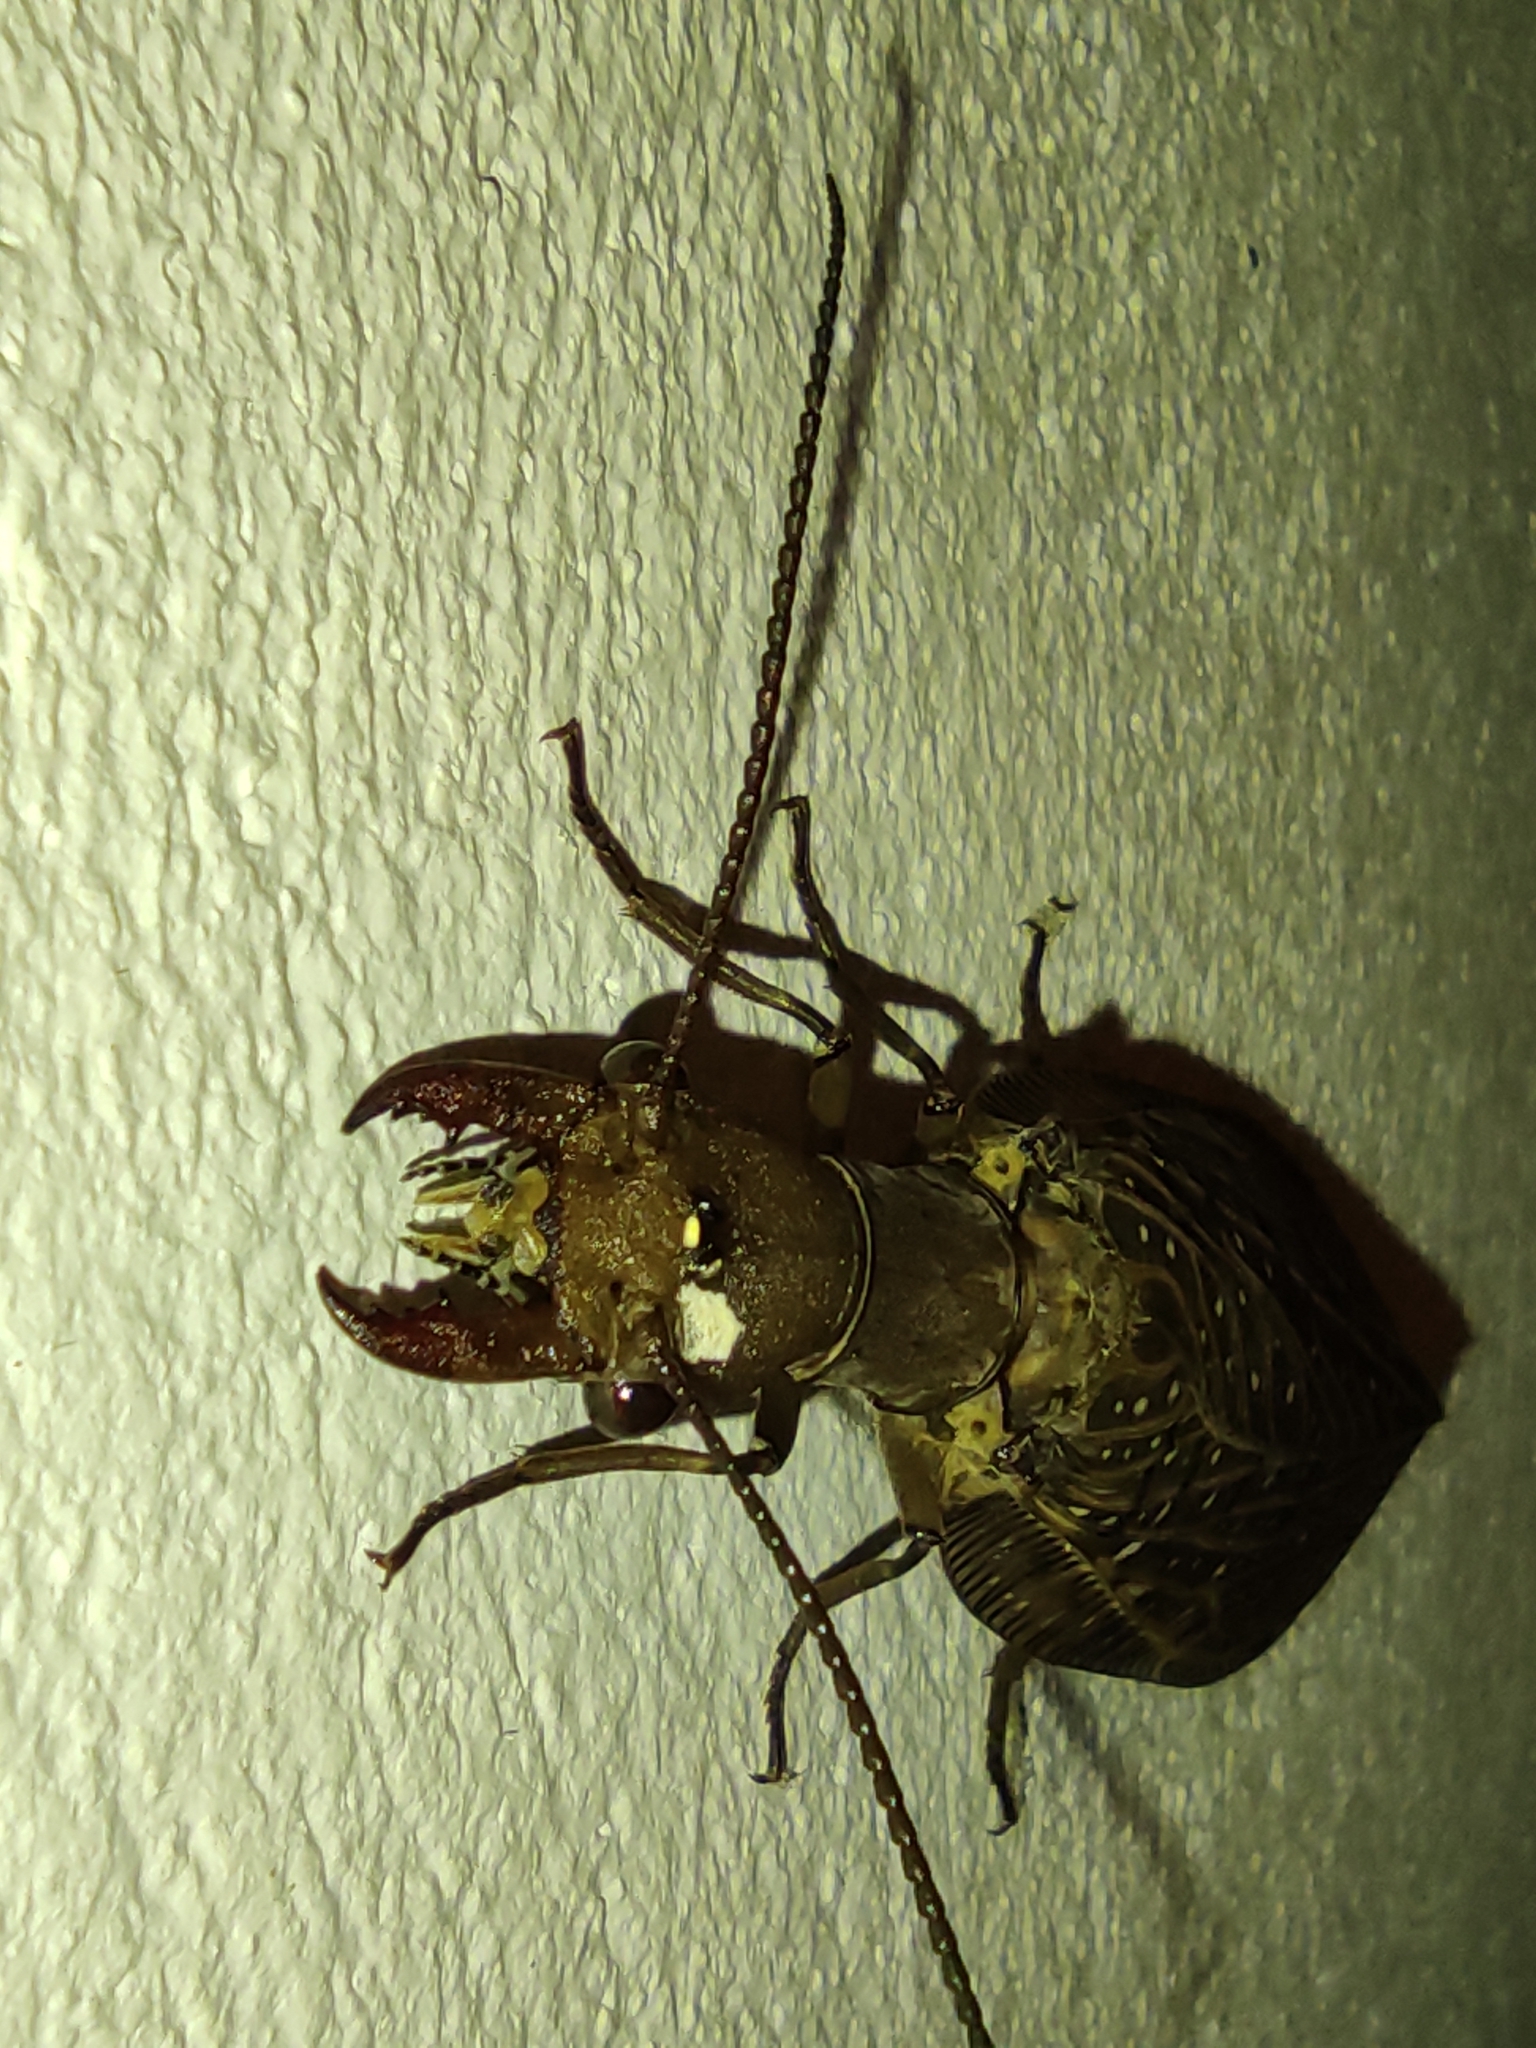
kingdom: Animalia
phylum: Arthropoda
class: Insecta
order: Megaloptera
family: Corydalidae
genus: Corydalus
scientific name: Corydalus luteus
